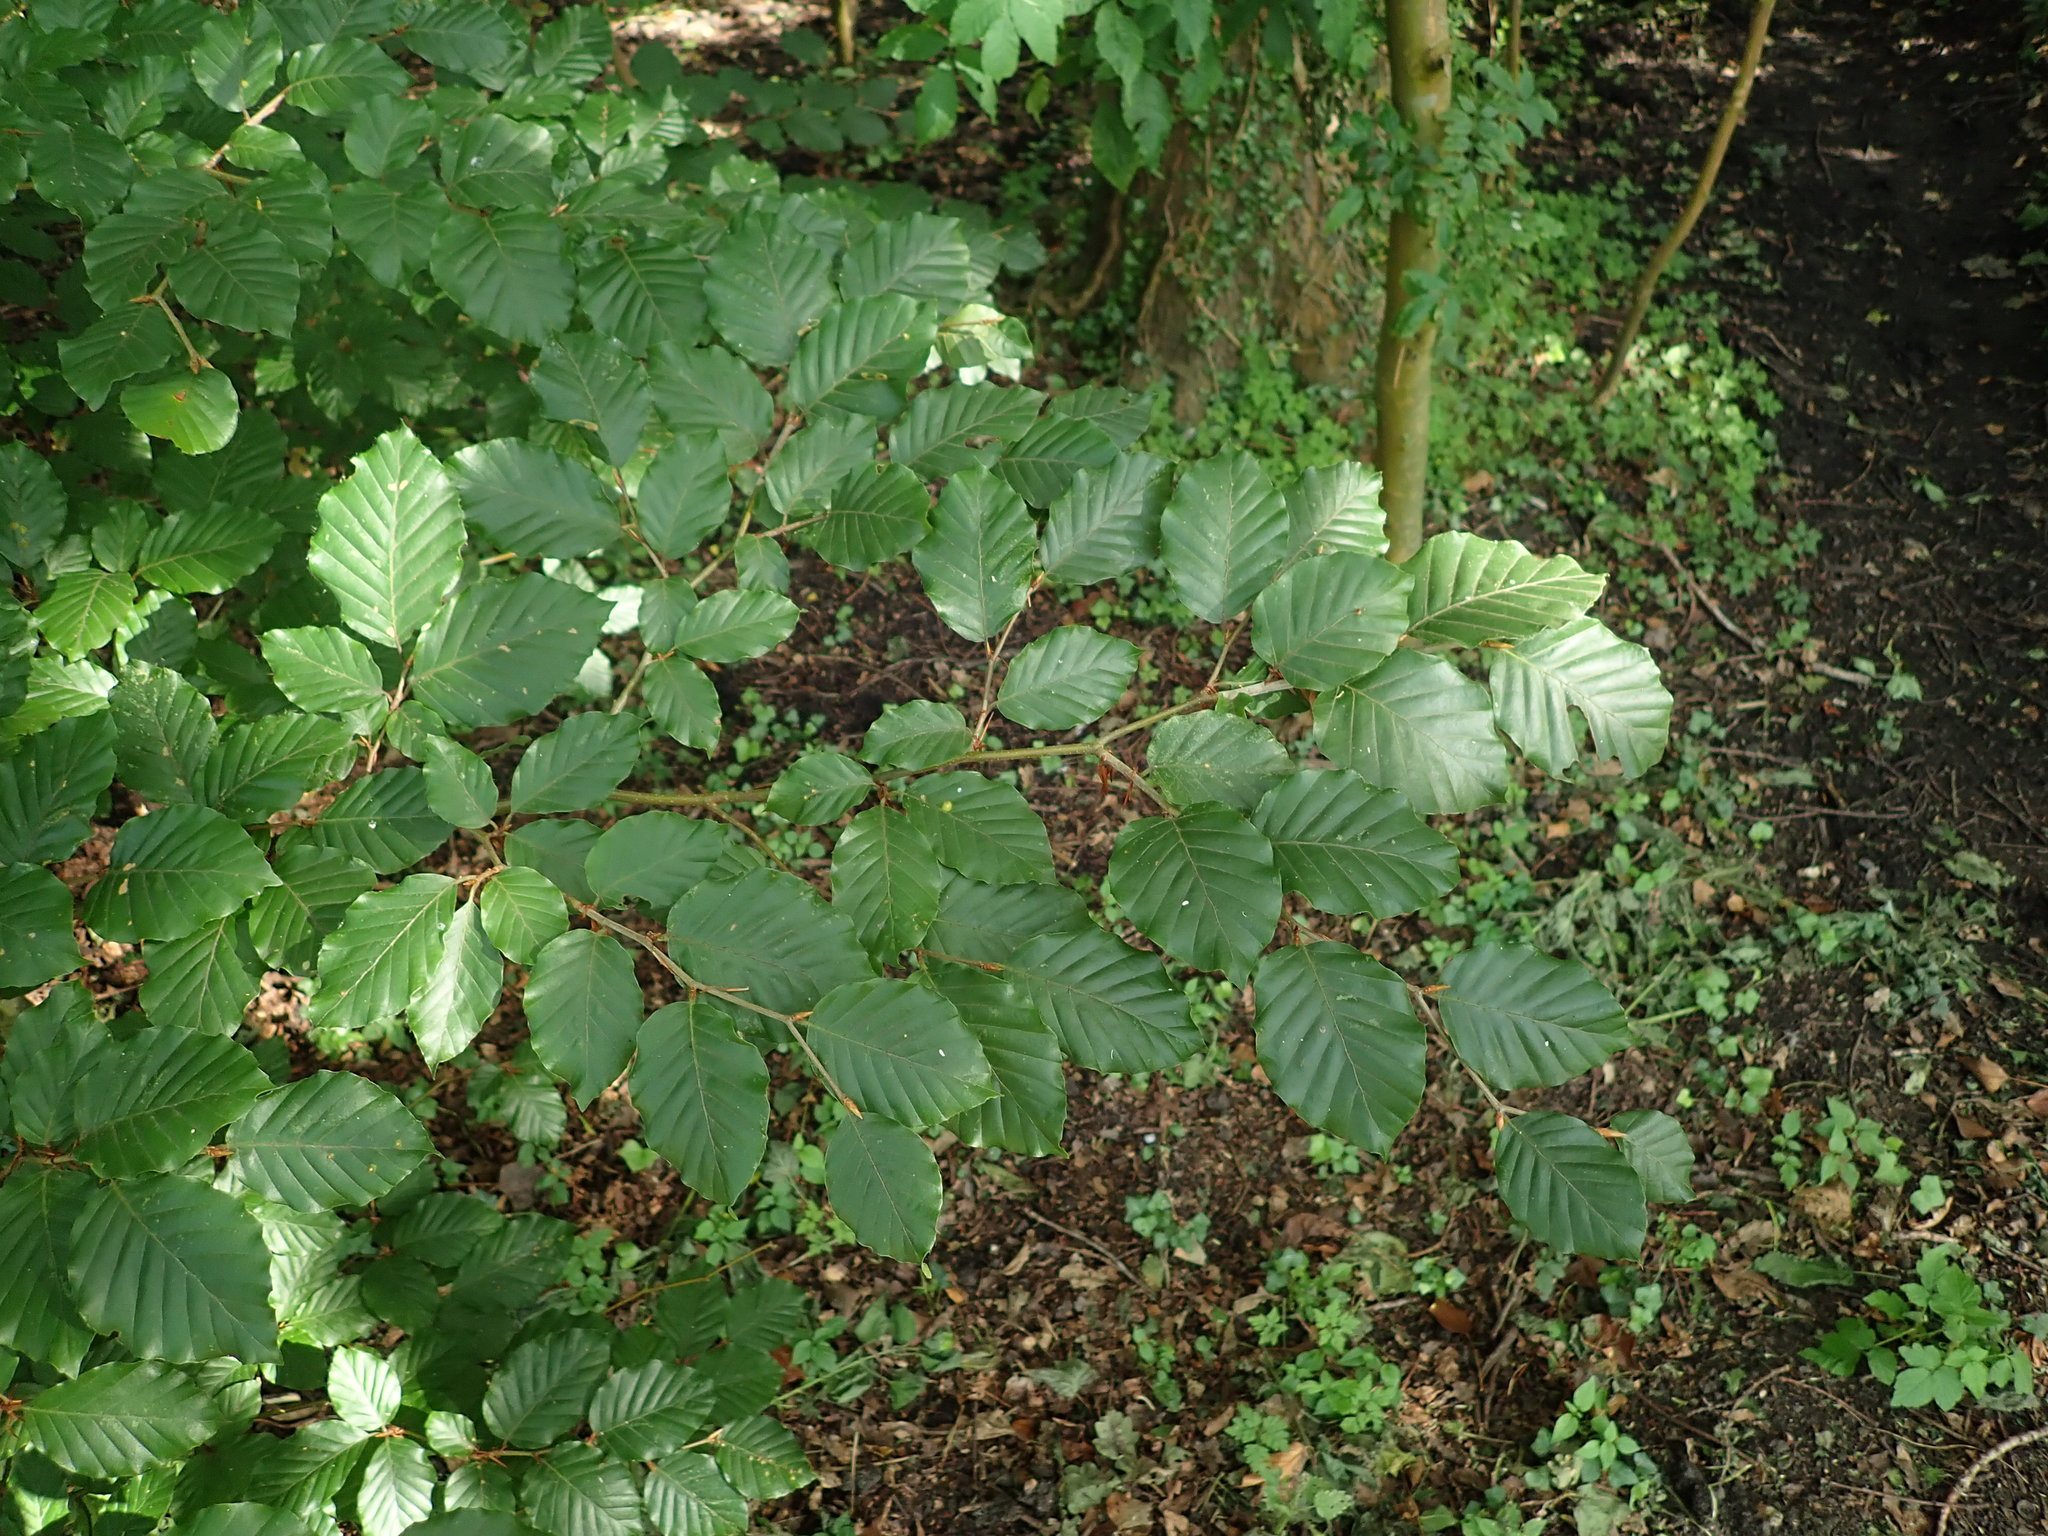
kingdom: Plantae
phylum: Tracheophyta
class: Magnoliopsida
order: Fagales
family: Fagaceae
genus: Fagus
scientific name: Fagus sylvatica
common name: Beech
